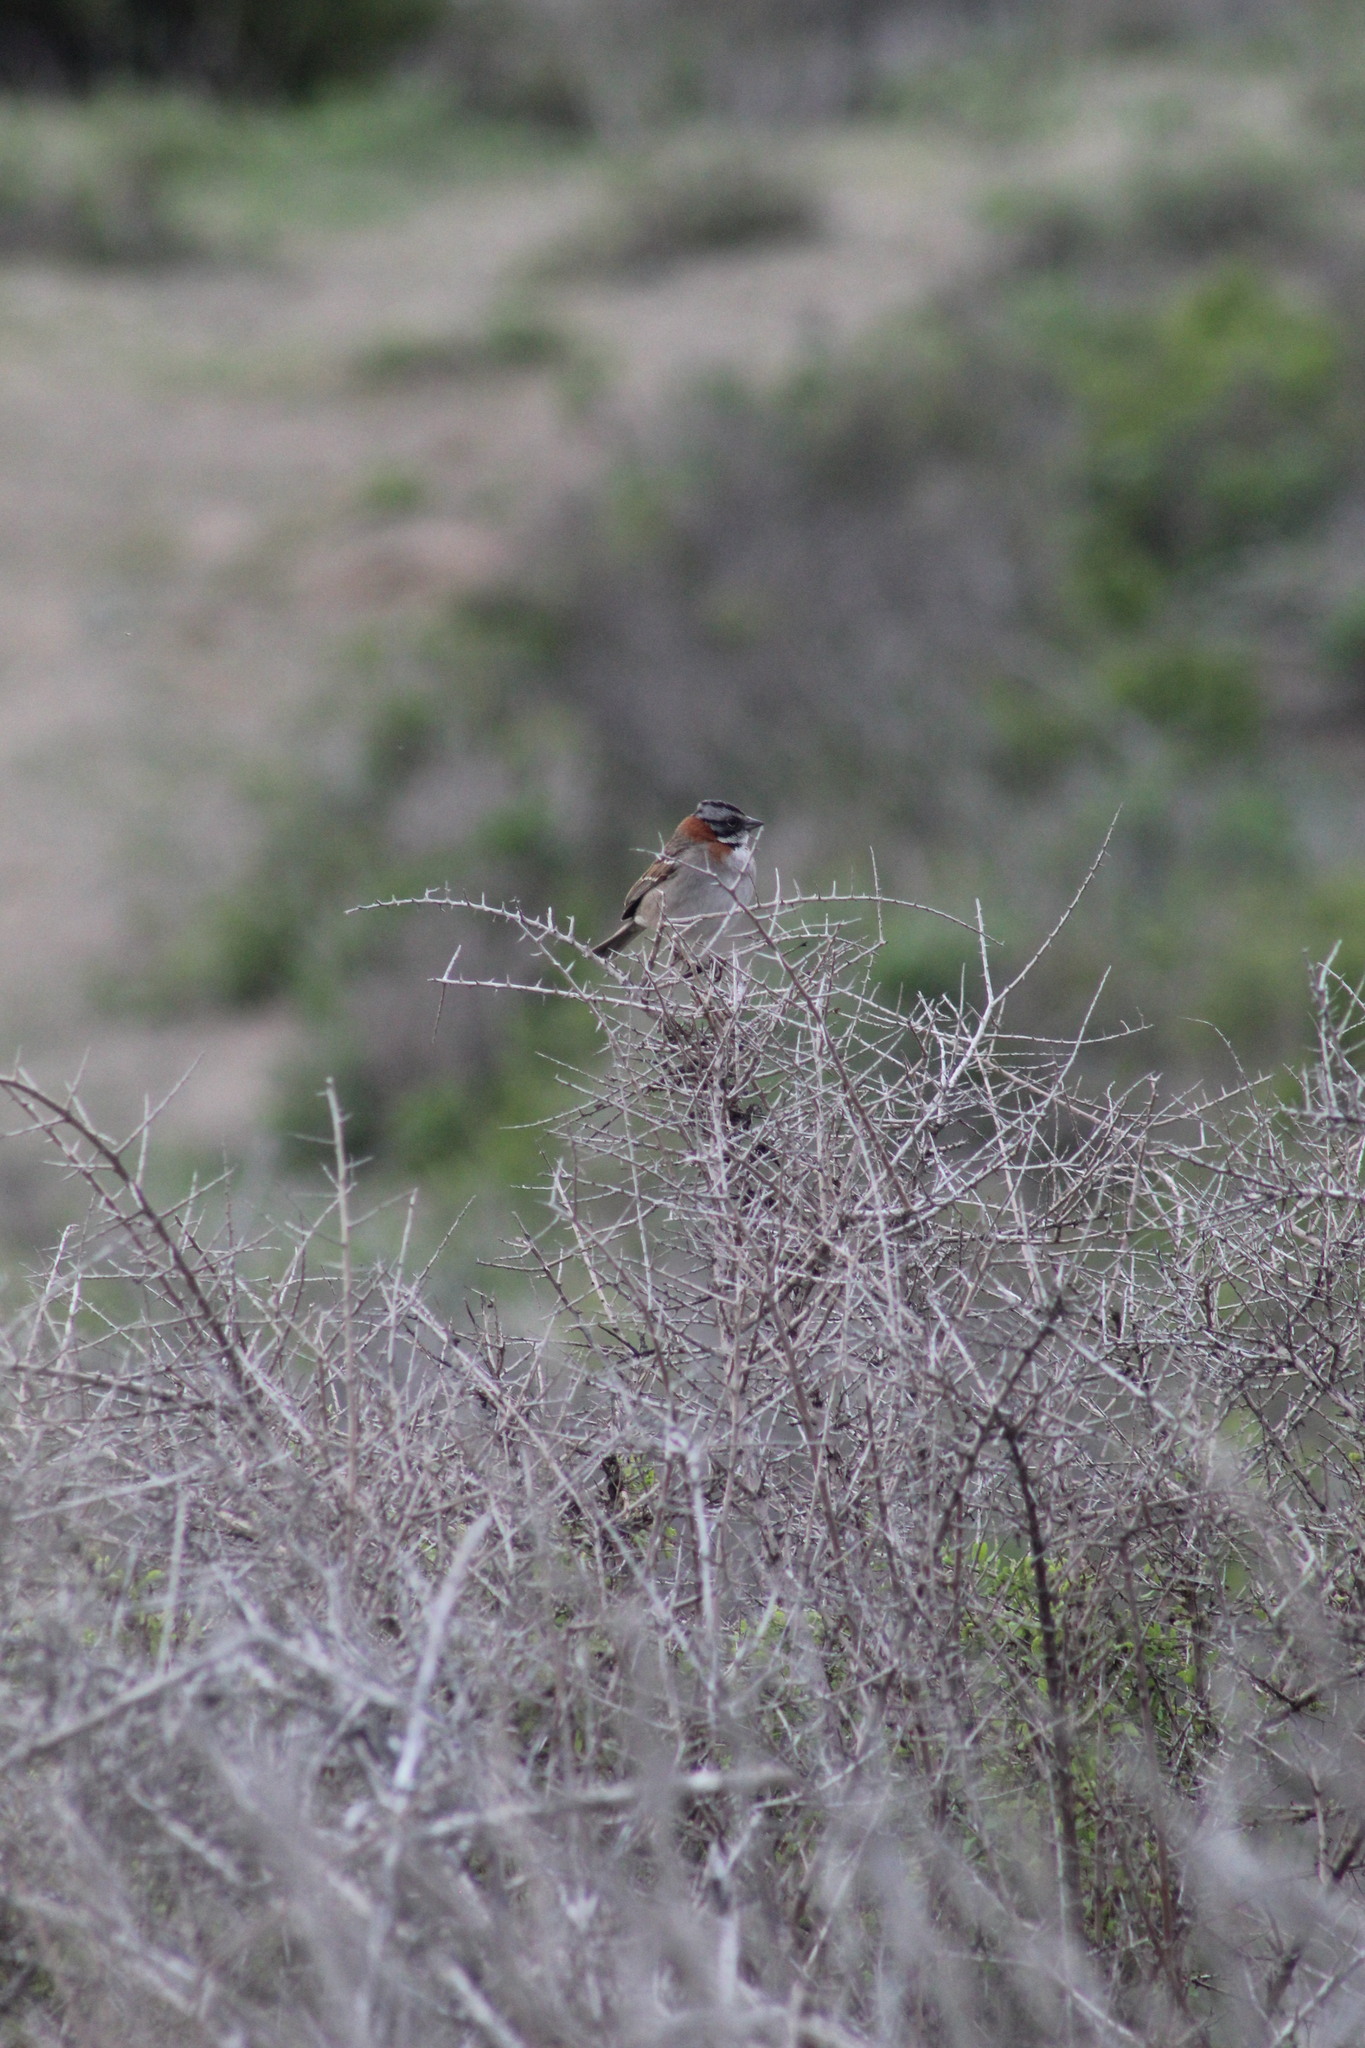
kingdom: Animalia
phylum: Chordata
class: Aves
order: Passeriformes
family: Passerellidae
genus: Zonotrichia
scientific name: Zonotrichia capensis
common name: Rufous-collared sparrow
